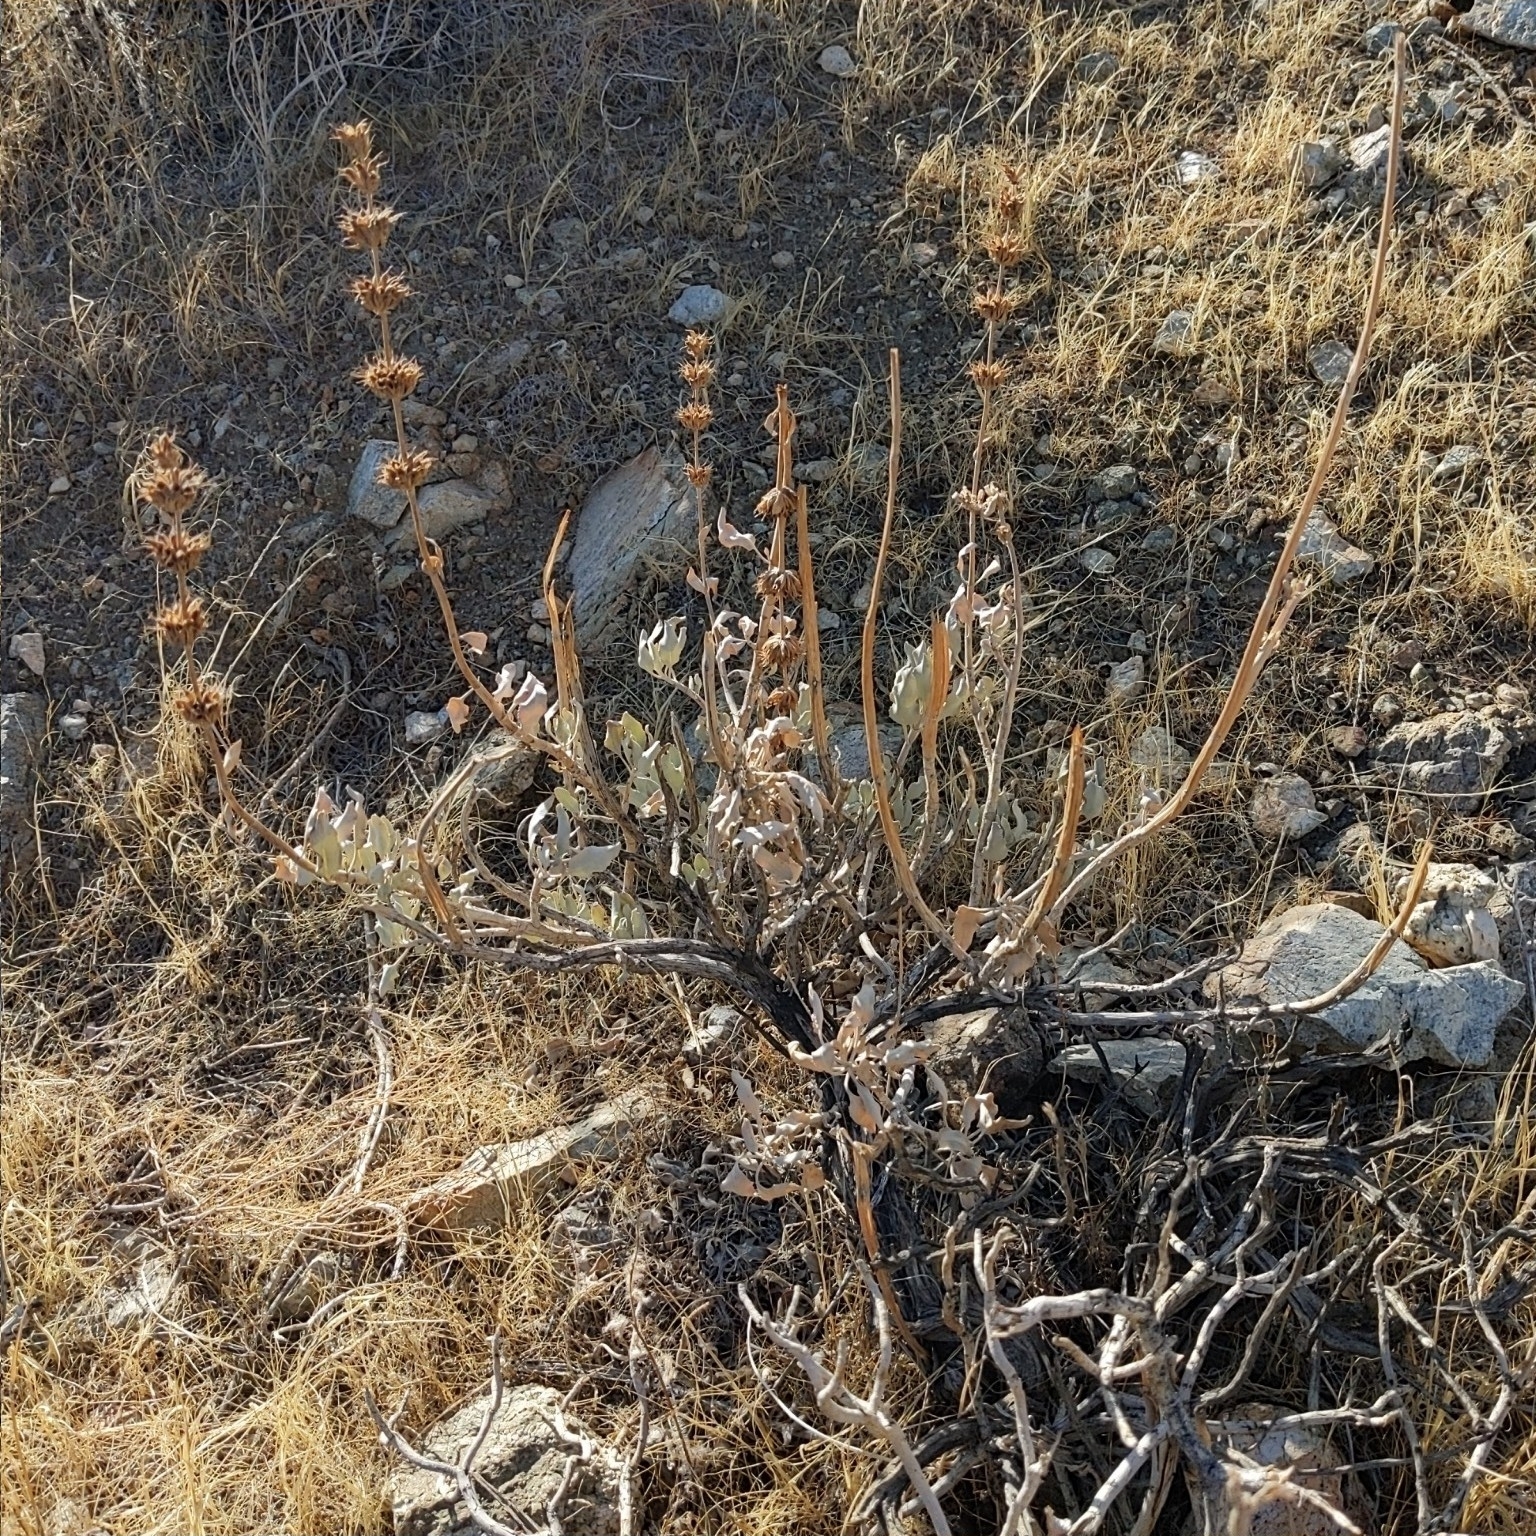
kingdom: Plantae
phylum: Tracheophyta
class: Magnoliopsida
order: Lamiales
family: Lamiaceae
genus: Salvia
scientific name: Salvia vaseyi
